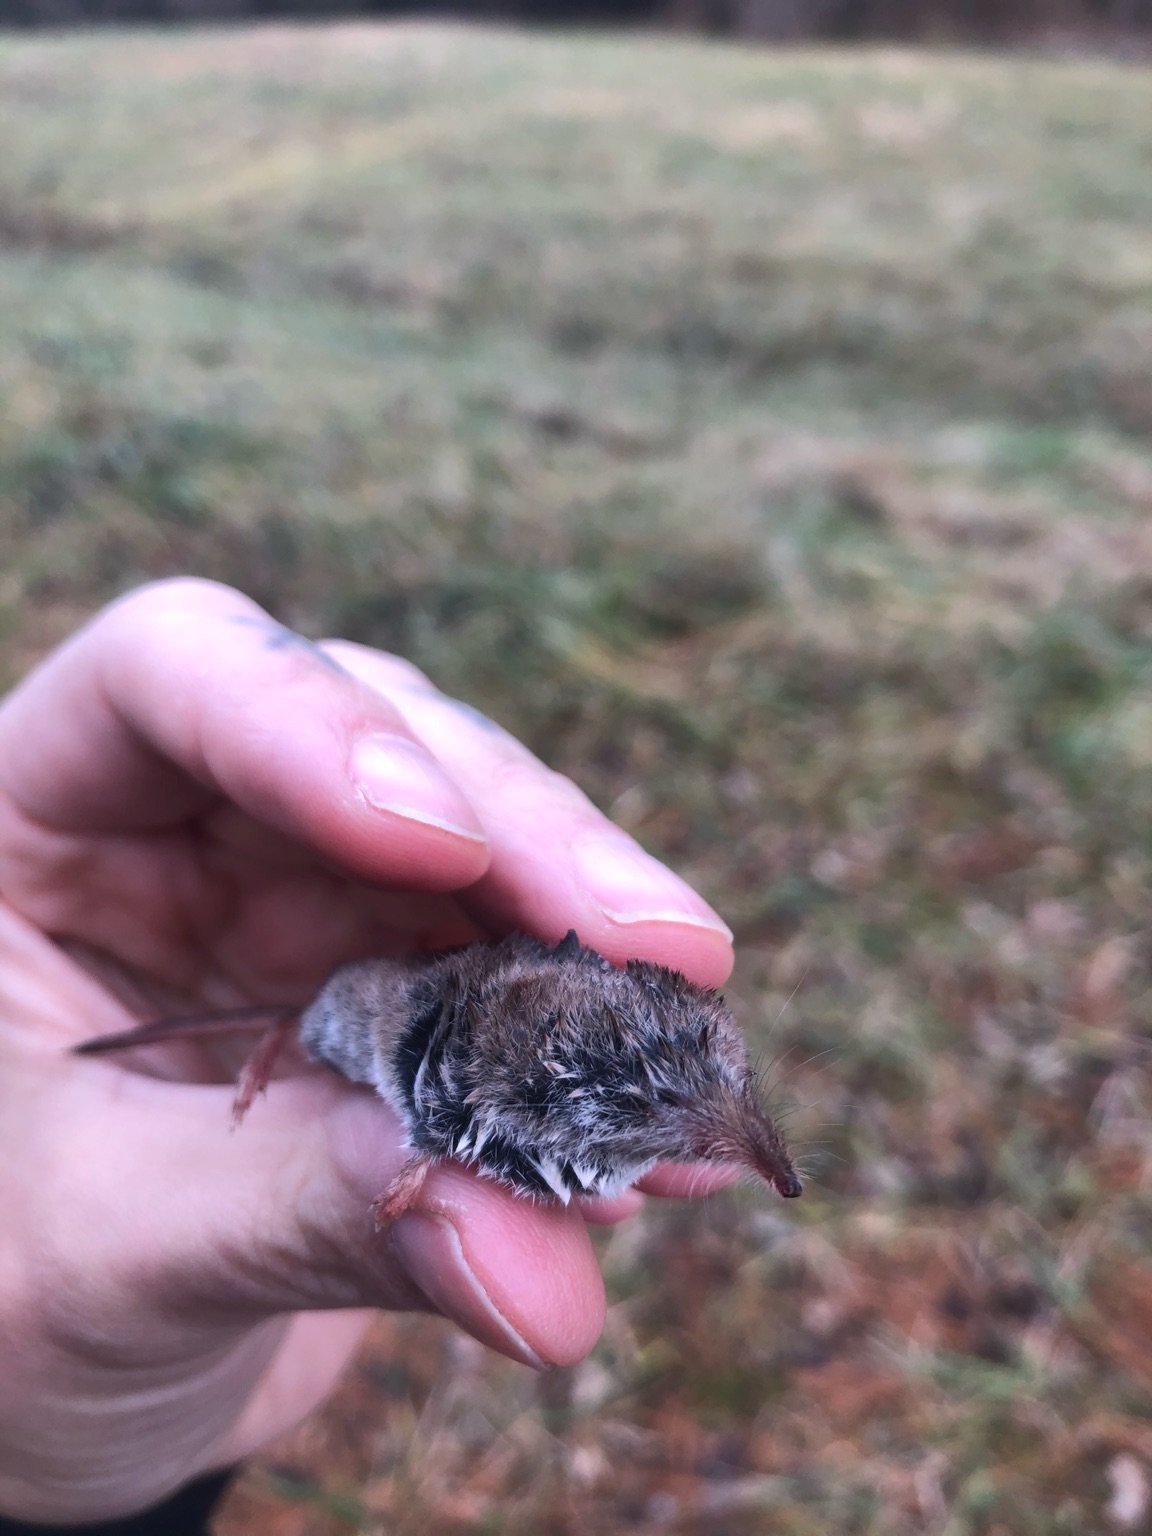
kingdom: Animalia
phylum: Chordata
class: Mammalia
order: Soricomorpha
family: Soricidae
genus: Sorex
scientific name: Sorex cinereus
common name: Cinereus shrew
